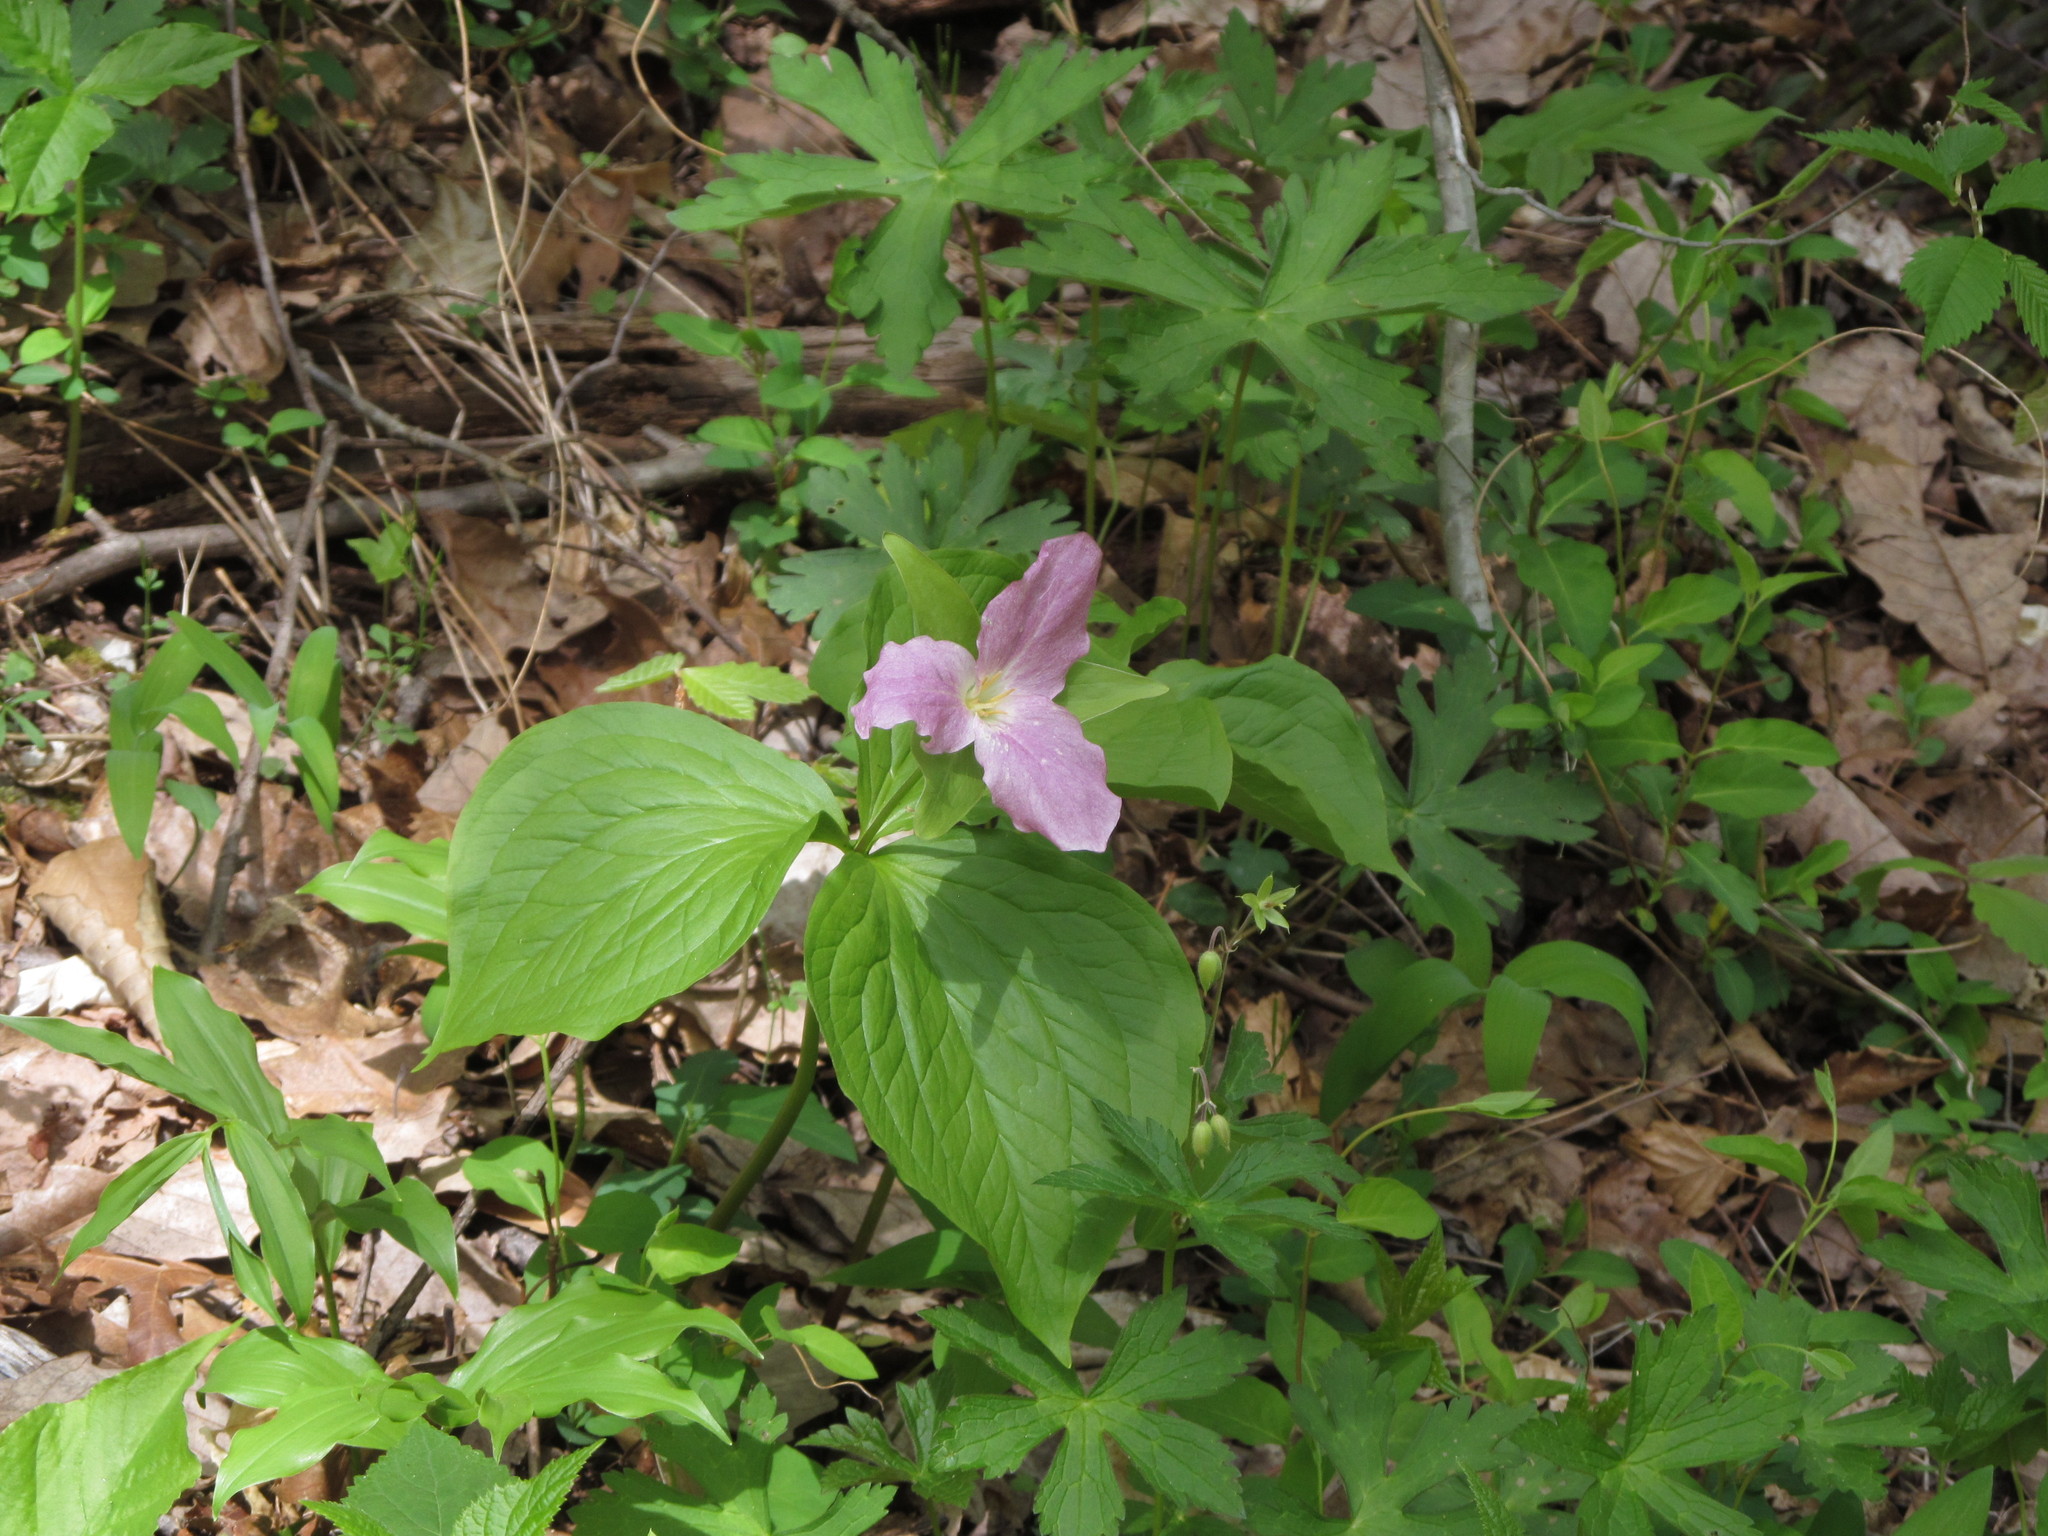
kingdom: Plantae
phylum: Tracheophyta
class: Liliopsida
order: Liliales
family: Melanthiaceae
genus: Trillium
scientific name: Trillium grandiflorum
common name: Great white trillium
